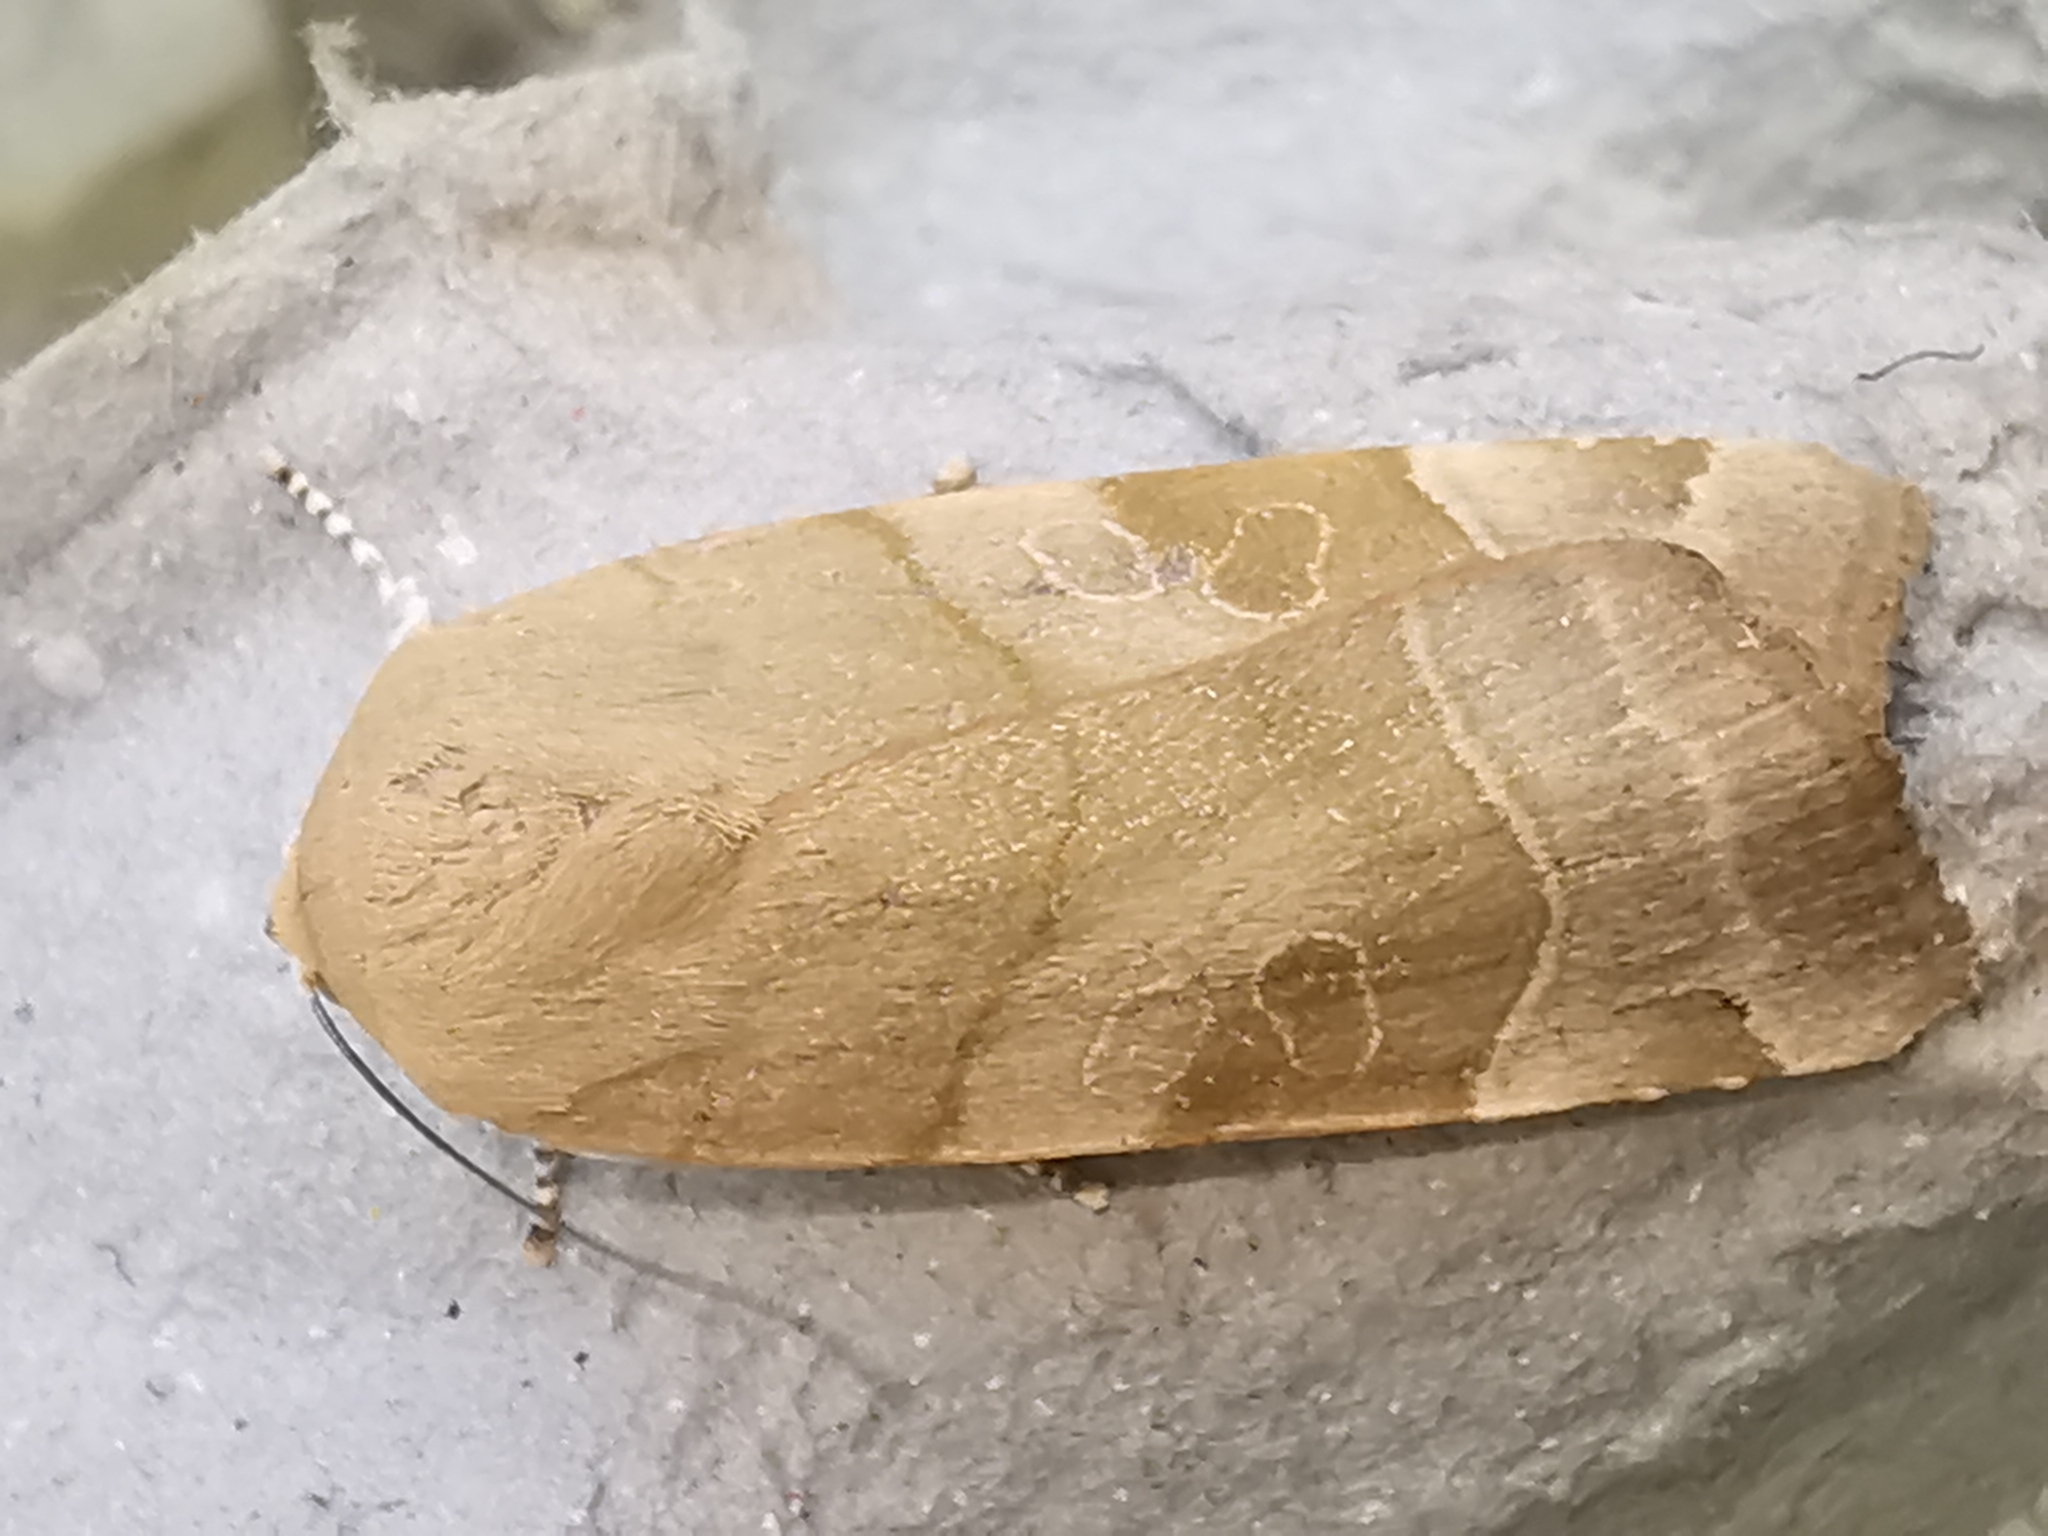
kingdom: Animalia
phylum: Arthropoda
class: Insecta
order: Lepidoptera
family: Noctuidae
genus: Noctua
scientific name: Noctua fimbriata
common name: Broad-bordered yellow underwing
